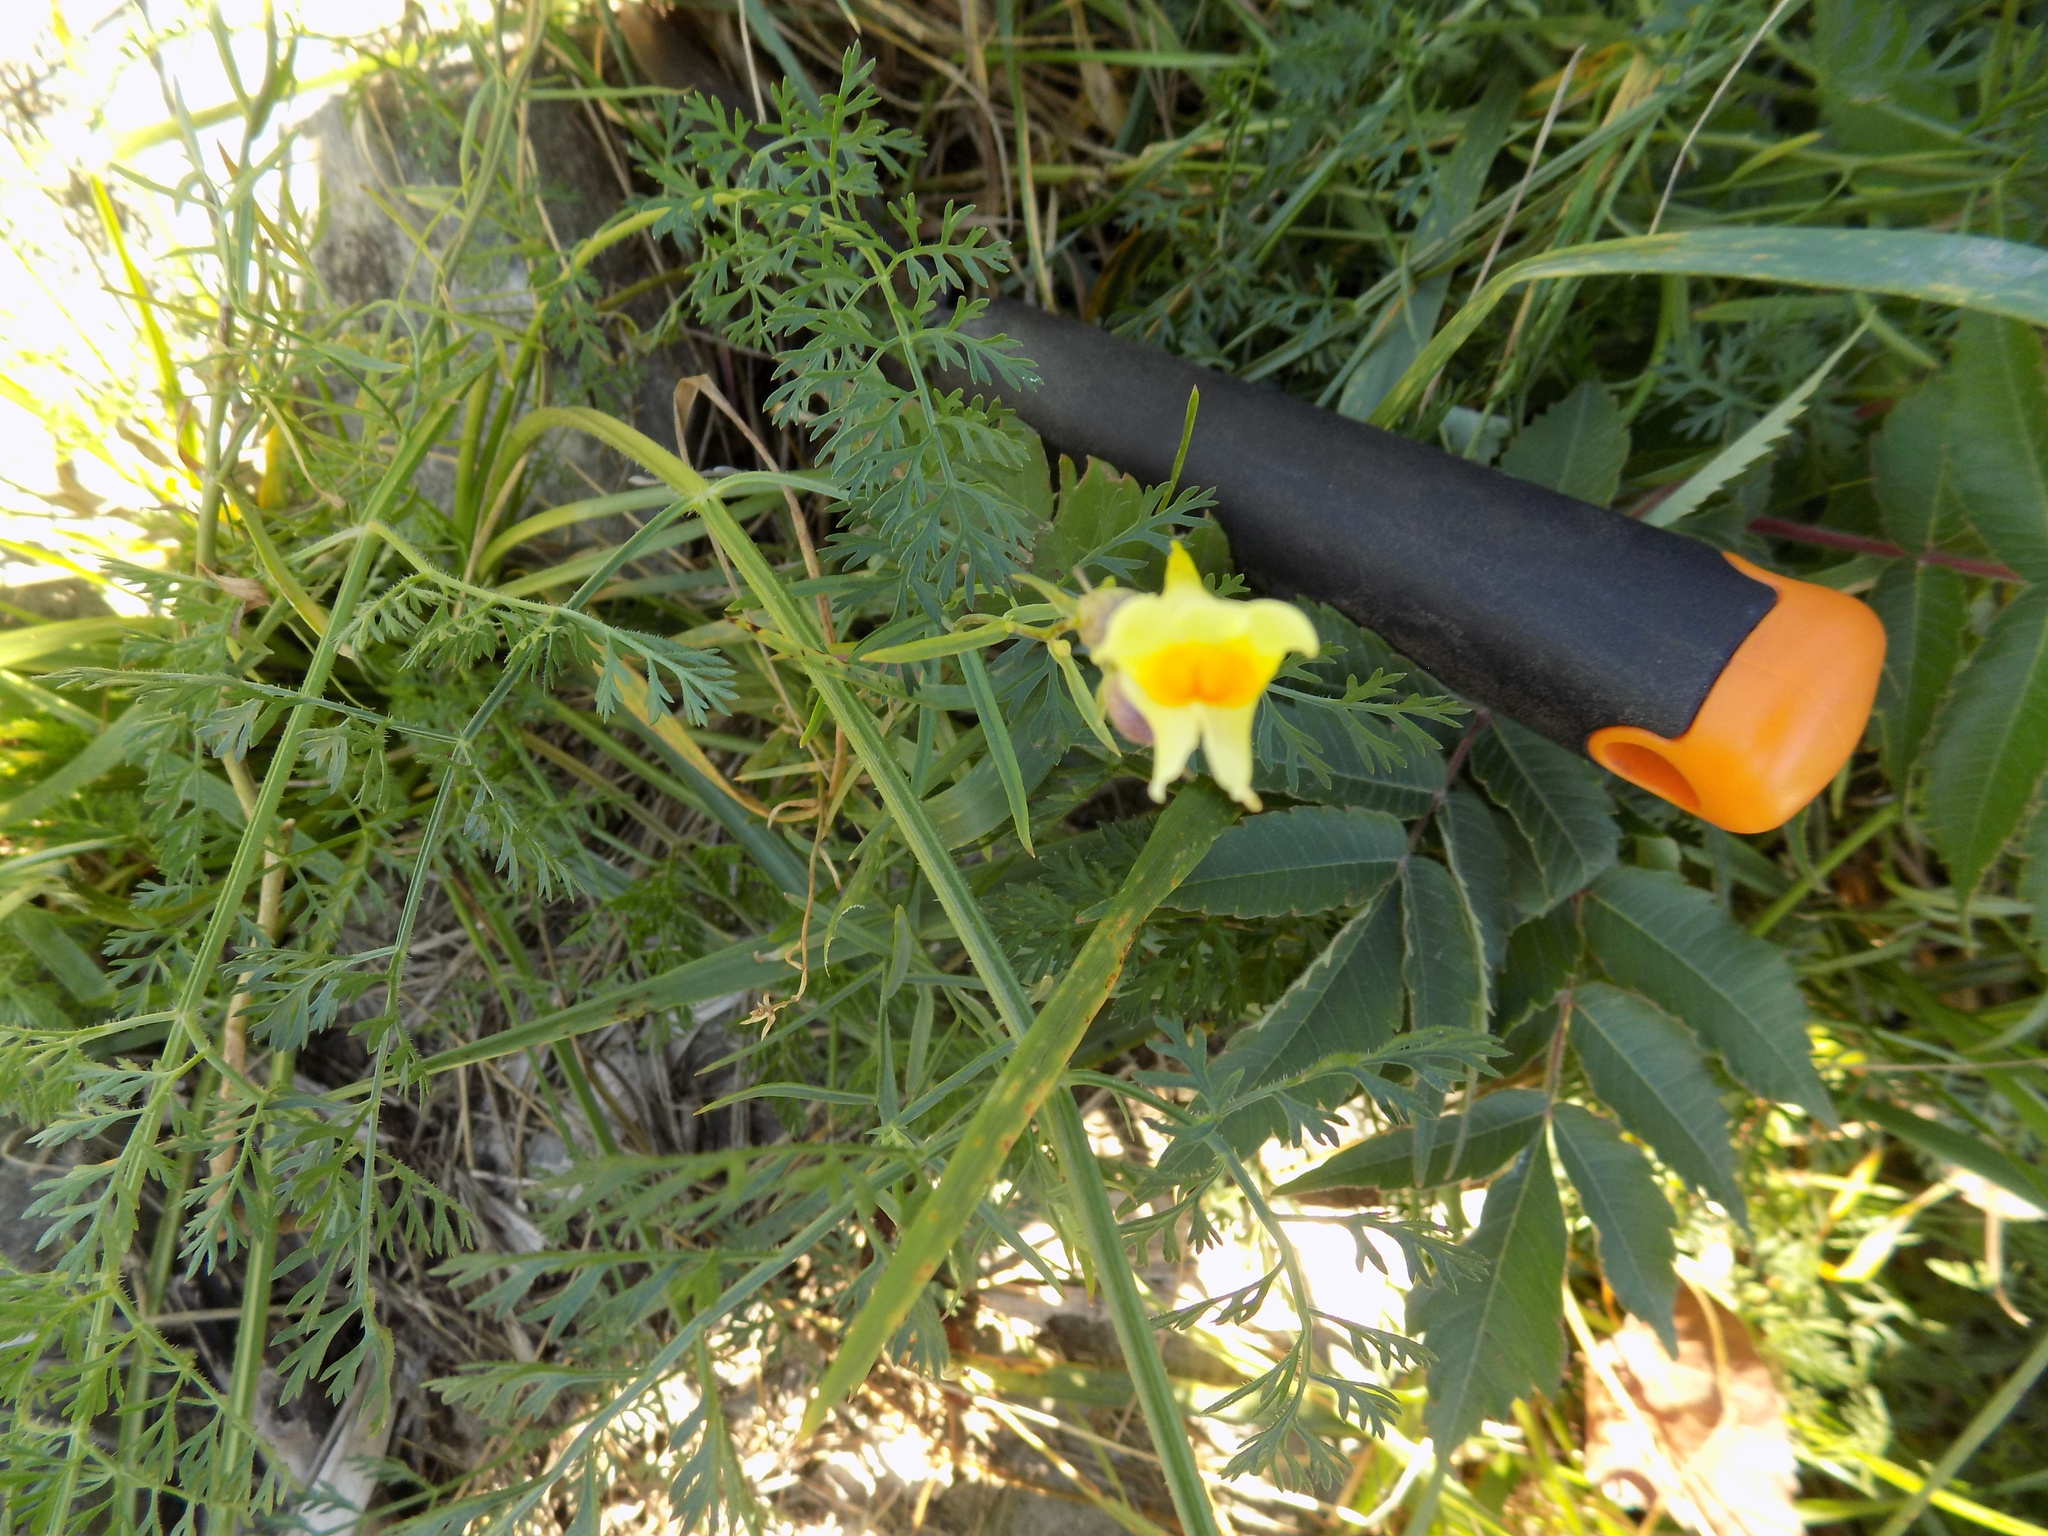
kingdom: Plantae
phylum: Tracheophyta
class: Magnoliopsida
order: Lamiales
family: Plantaginaceae
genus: Linaria
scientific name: Linaria vulgaris
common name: Butter and eggs
